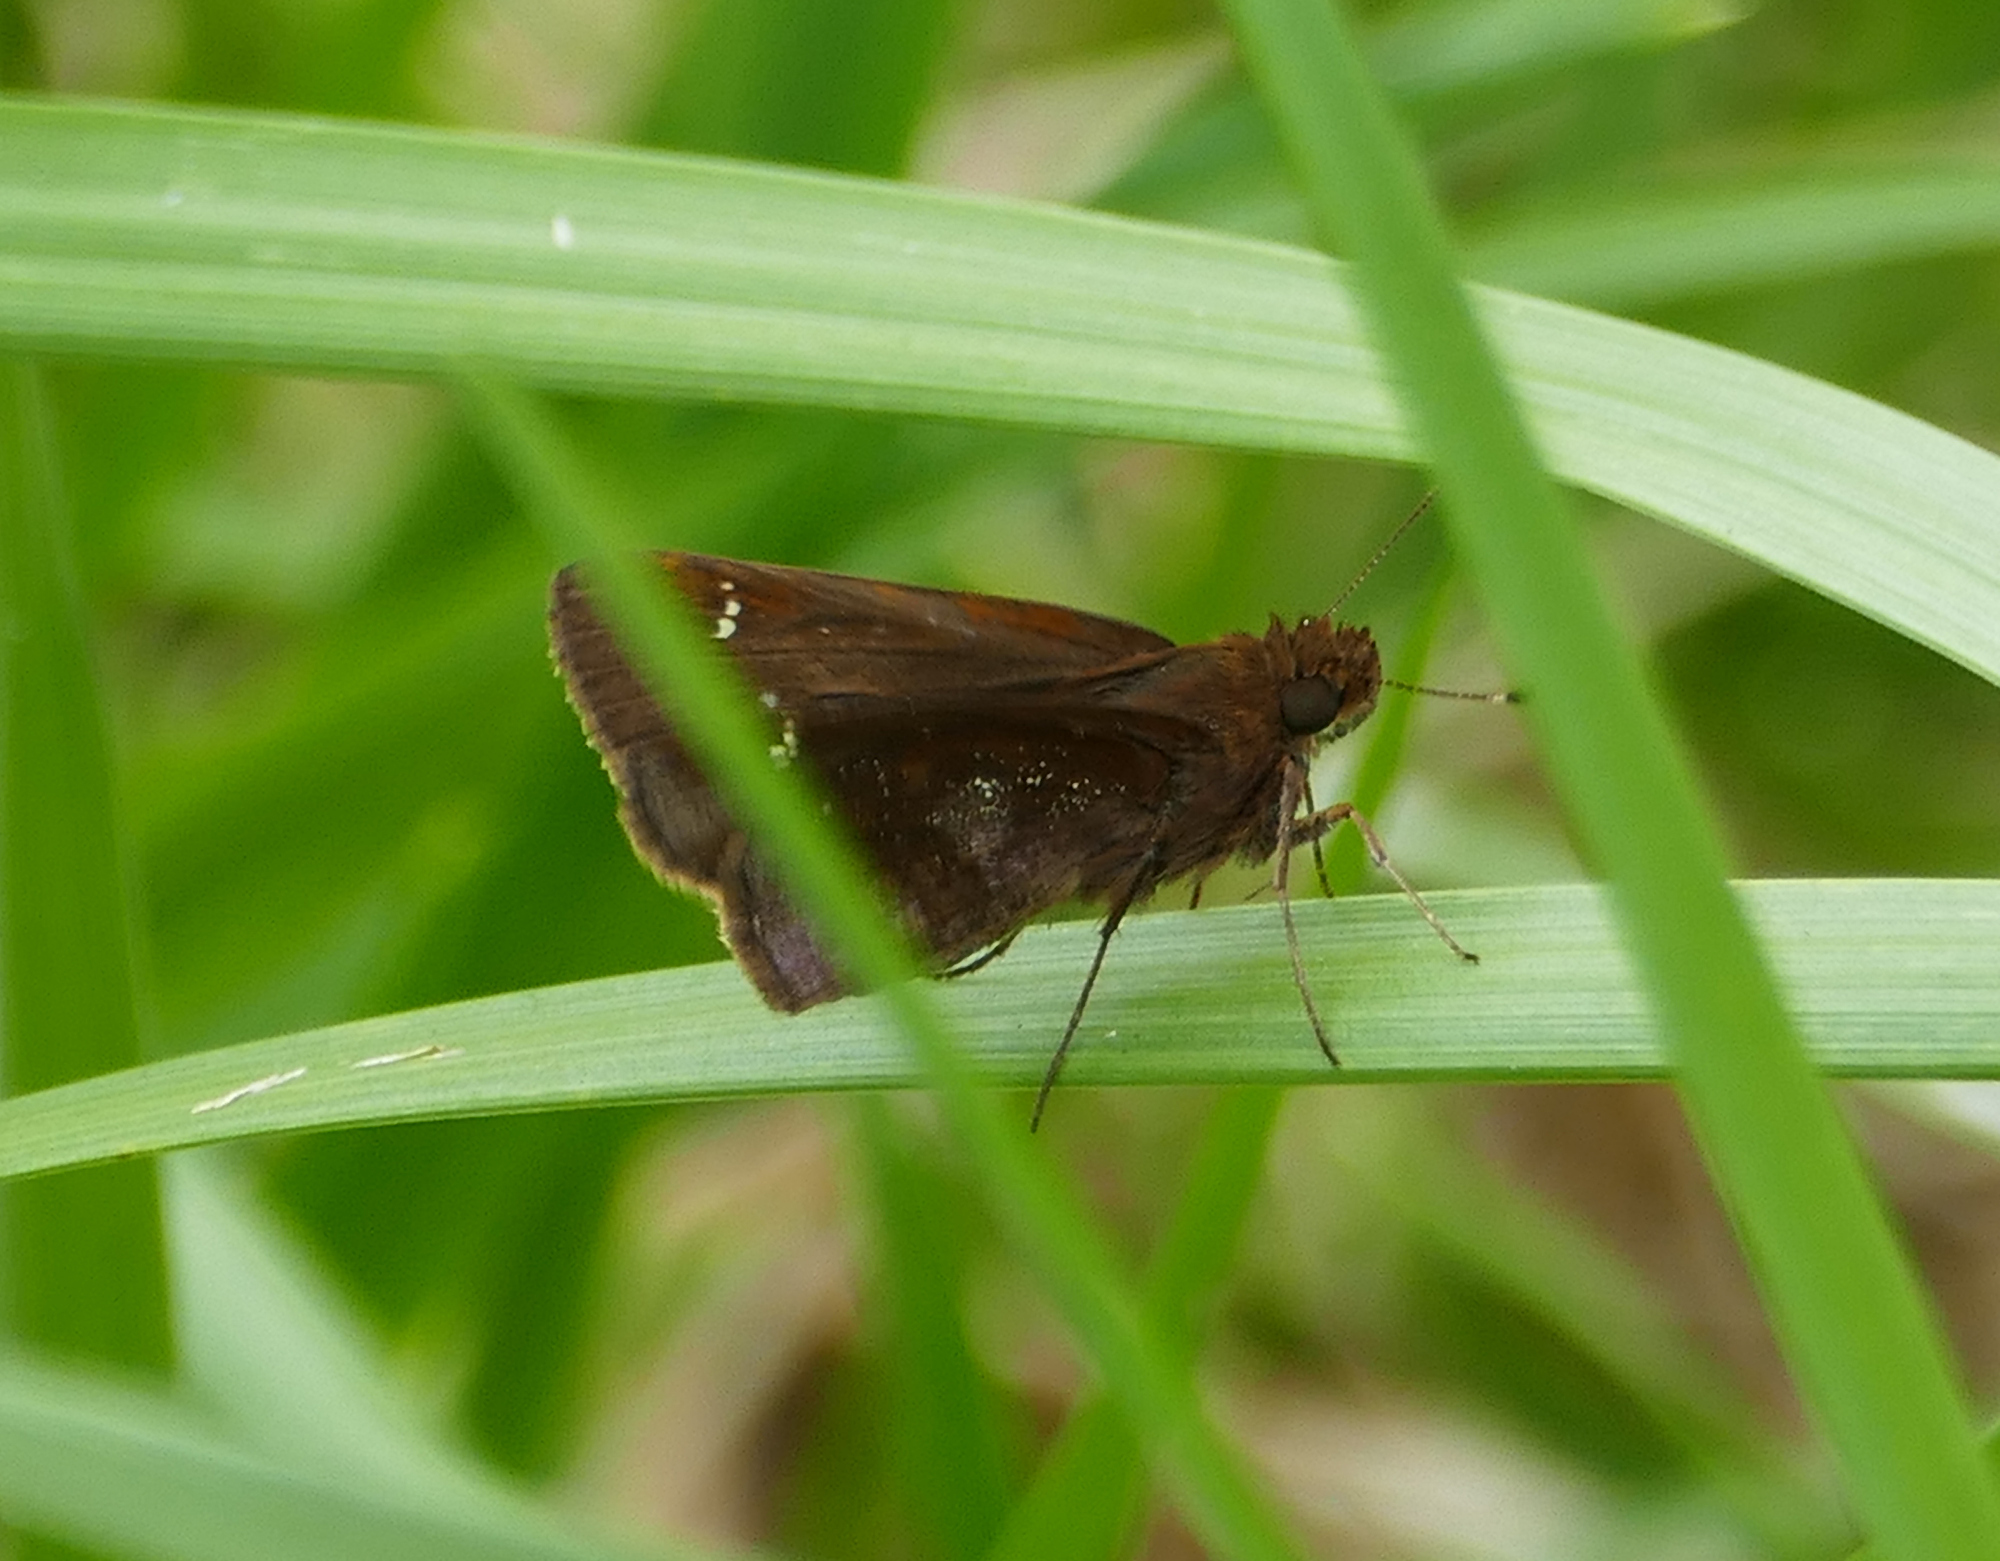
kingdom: Animalia
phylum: Arthropoda
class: Insecta
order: Lepidoptera
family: Hesperiidae
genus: Lerema
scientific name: Lerema accius
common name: Clouded skipper
